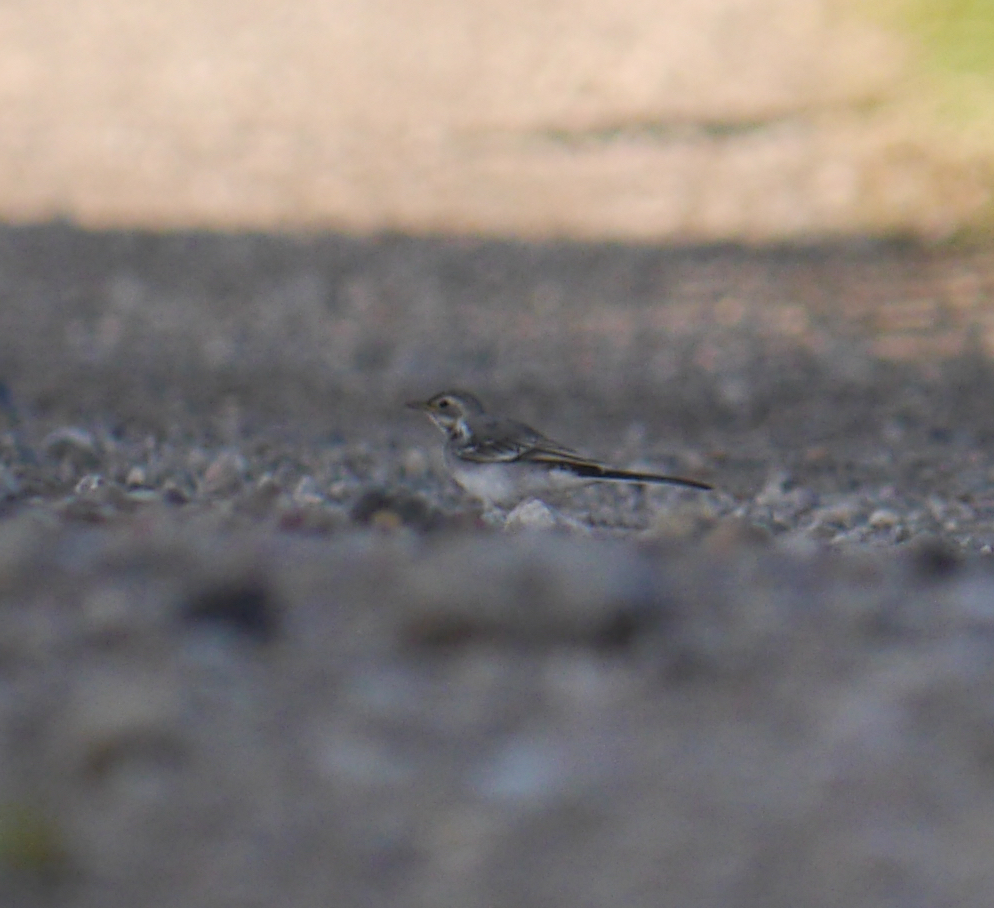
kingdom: Animalia
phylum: Chordata
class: Aves
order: Passeriformes
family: Motacillidae
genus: Motacilla
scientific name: Motacilla alba
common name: White wagtail
